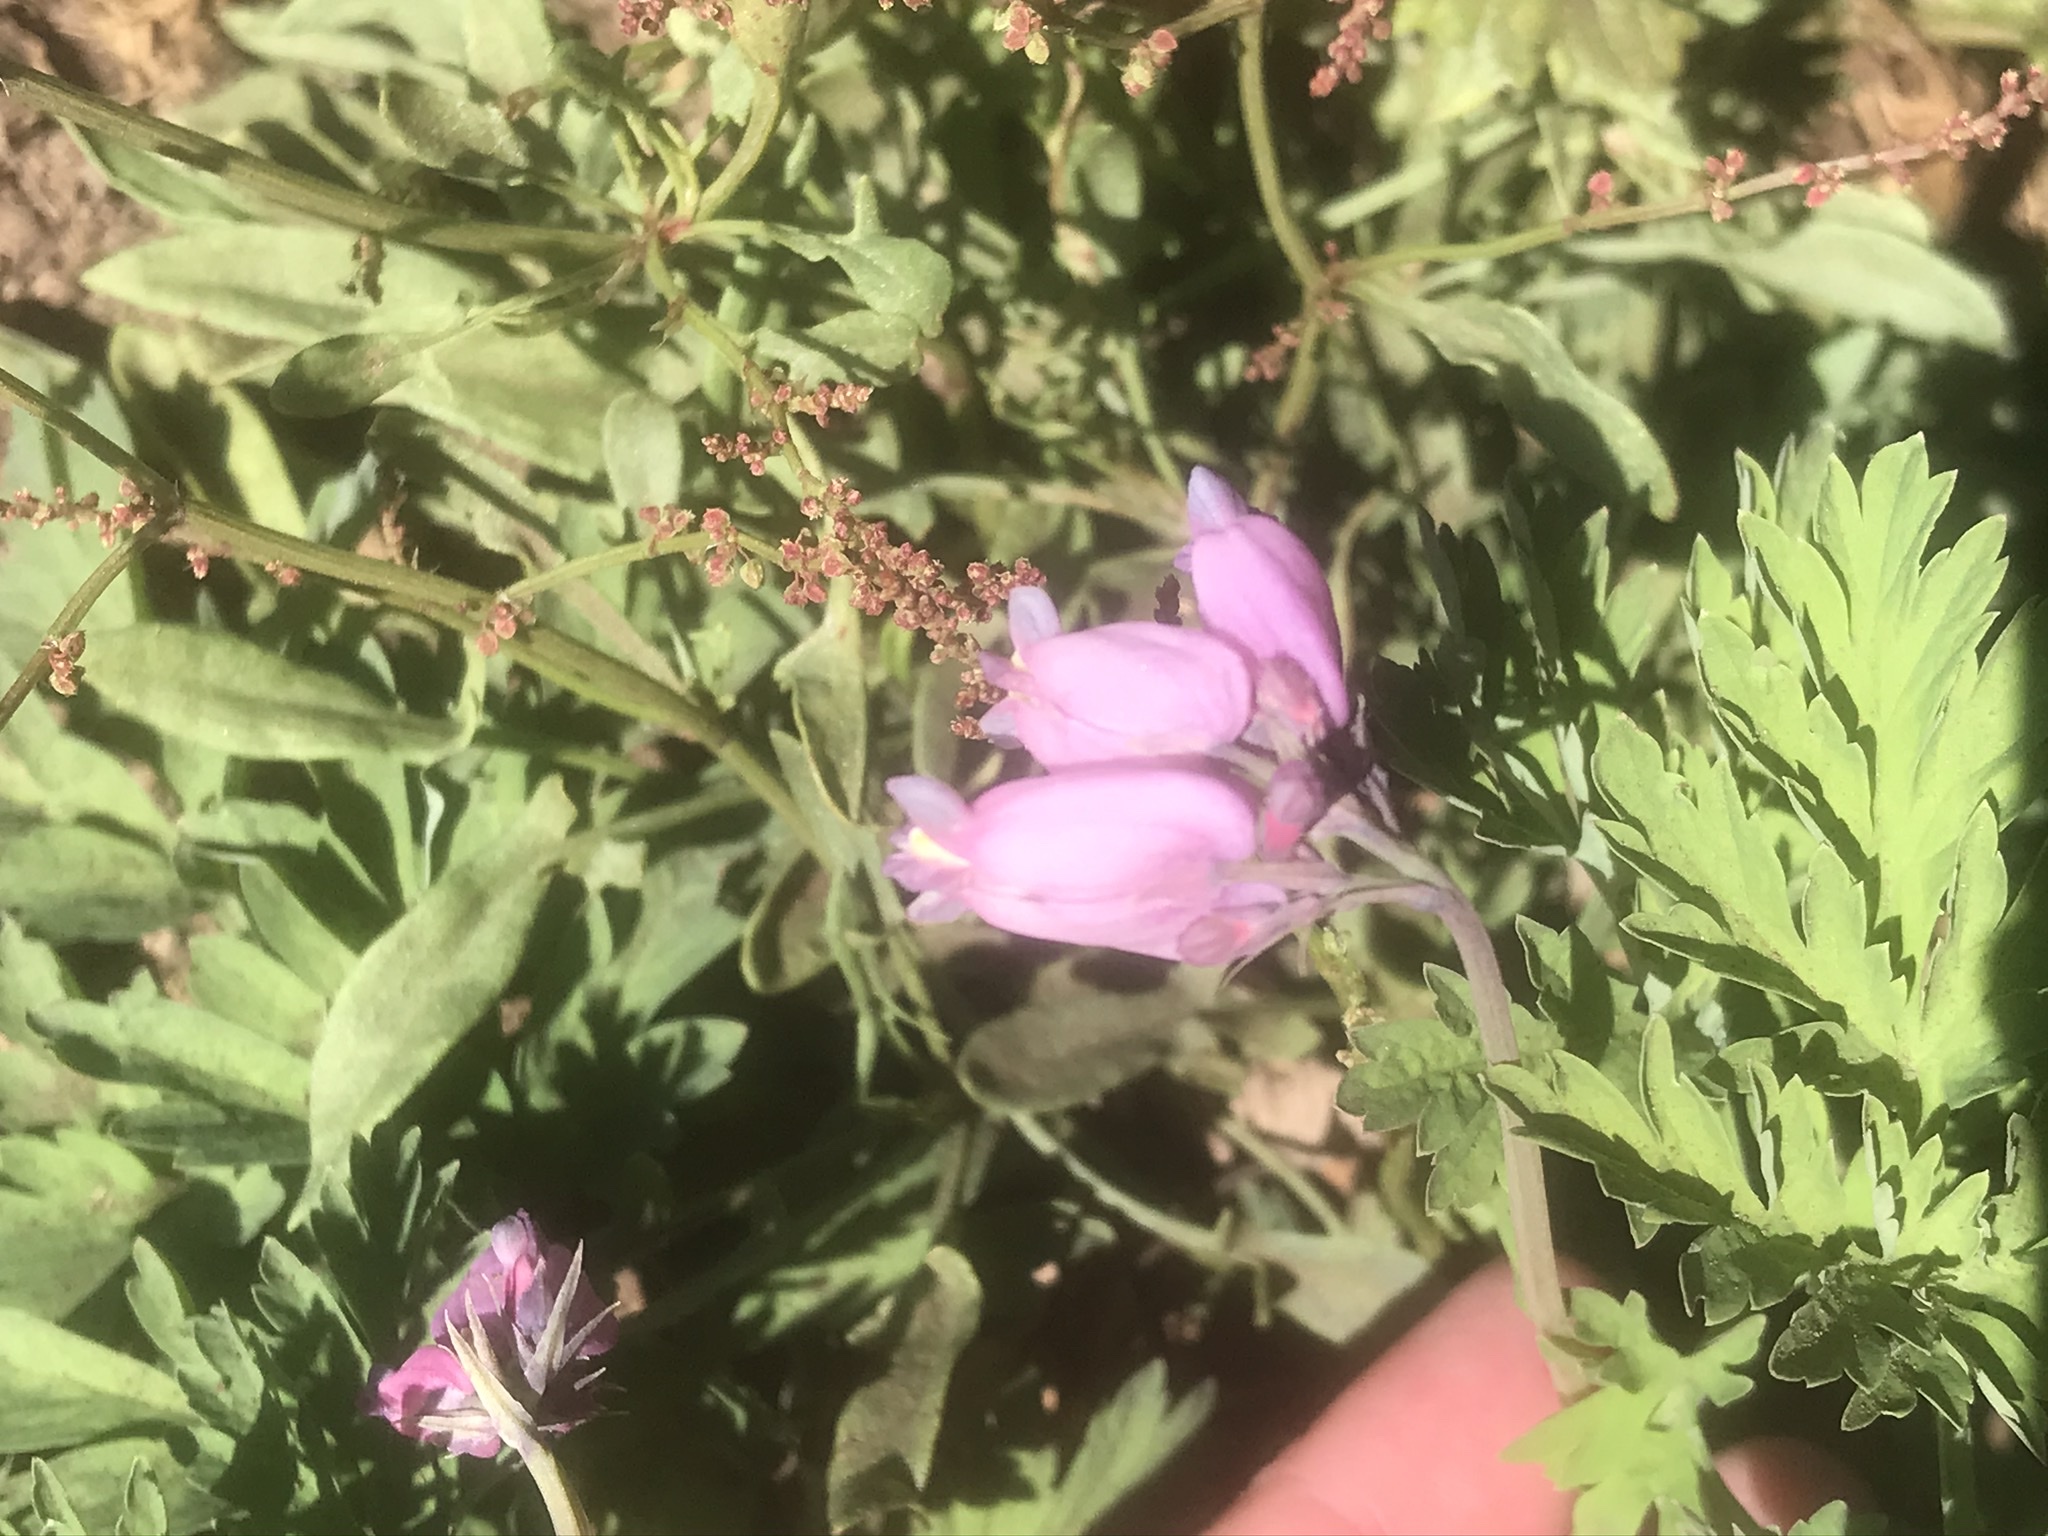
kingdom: Plantae
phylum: Tracheophyta
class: Magnoliopsida
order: Ranunculales
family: Papaveraceae
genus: Dicentra
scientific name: Dicentra formosa
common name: Bleeding-heart
